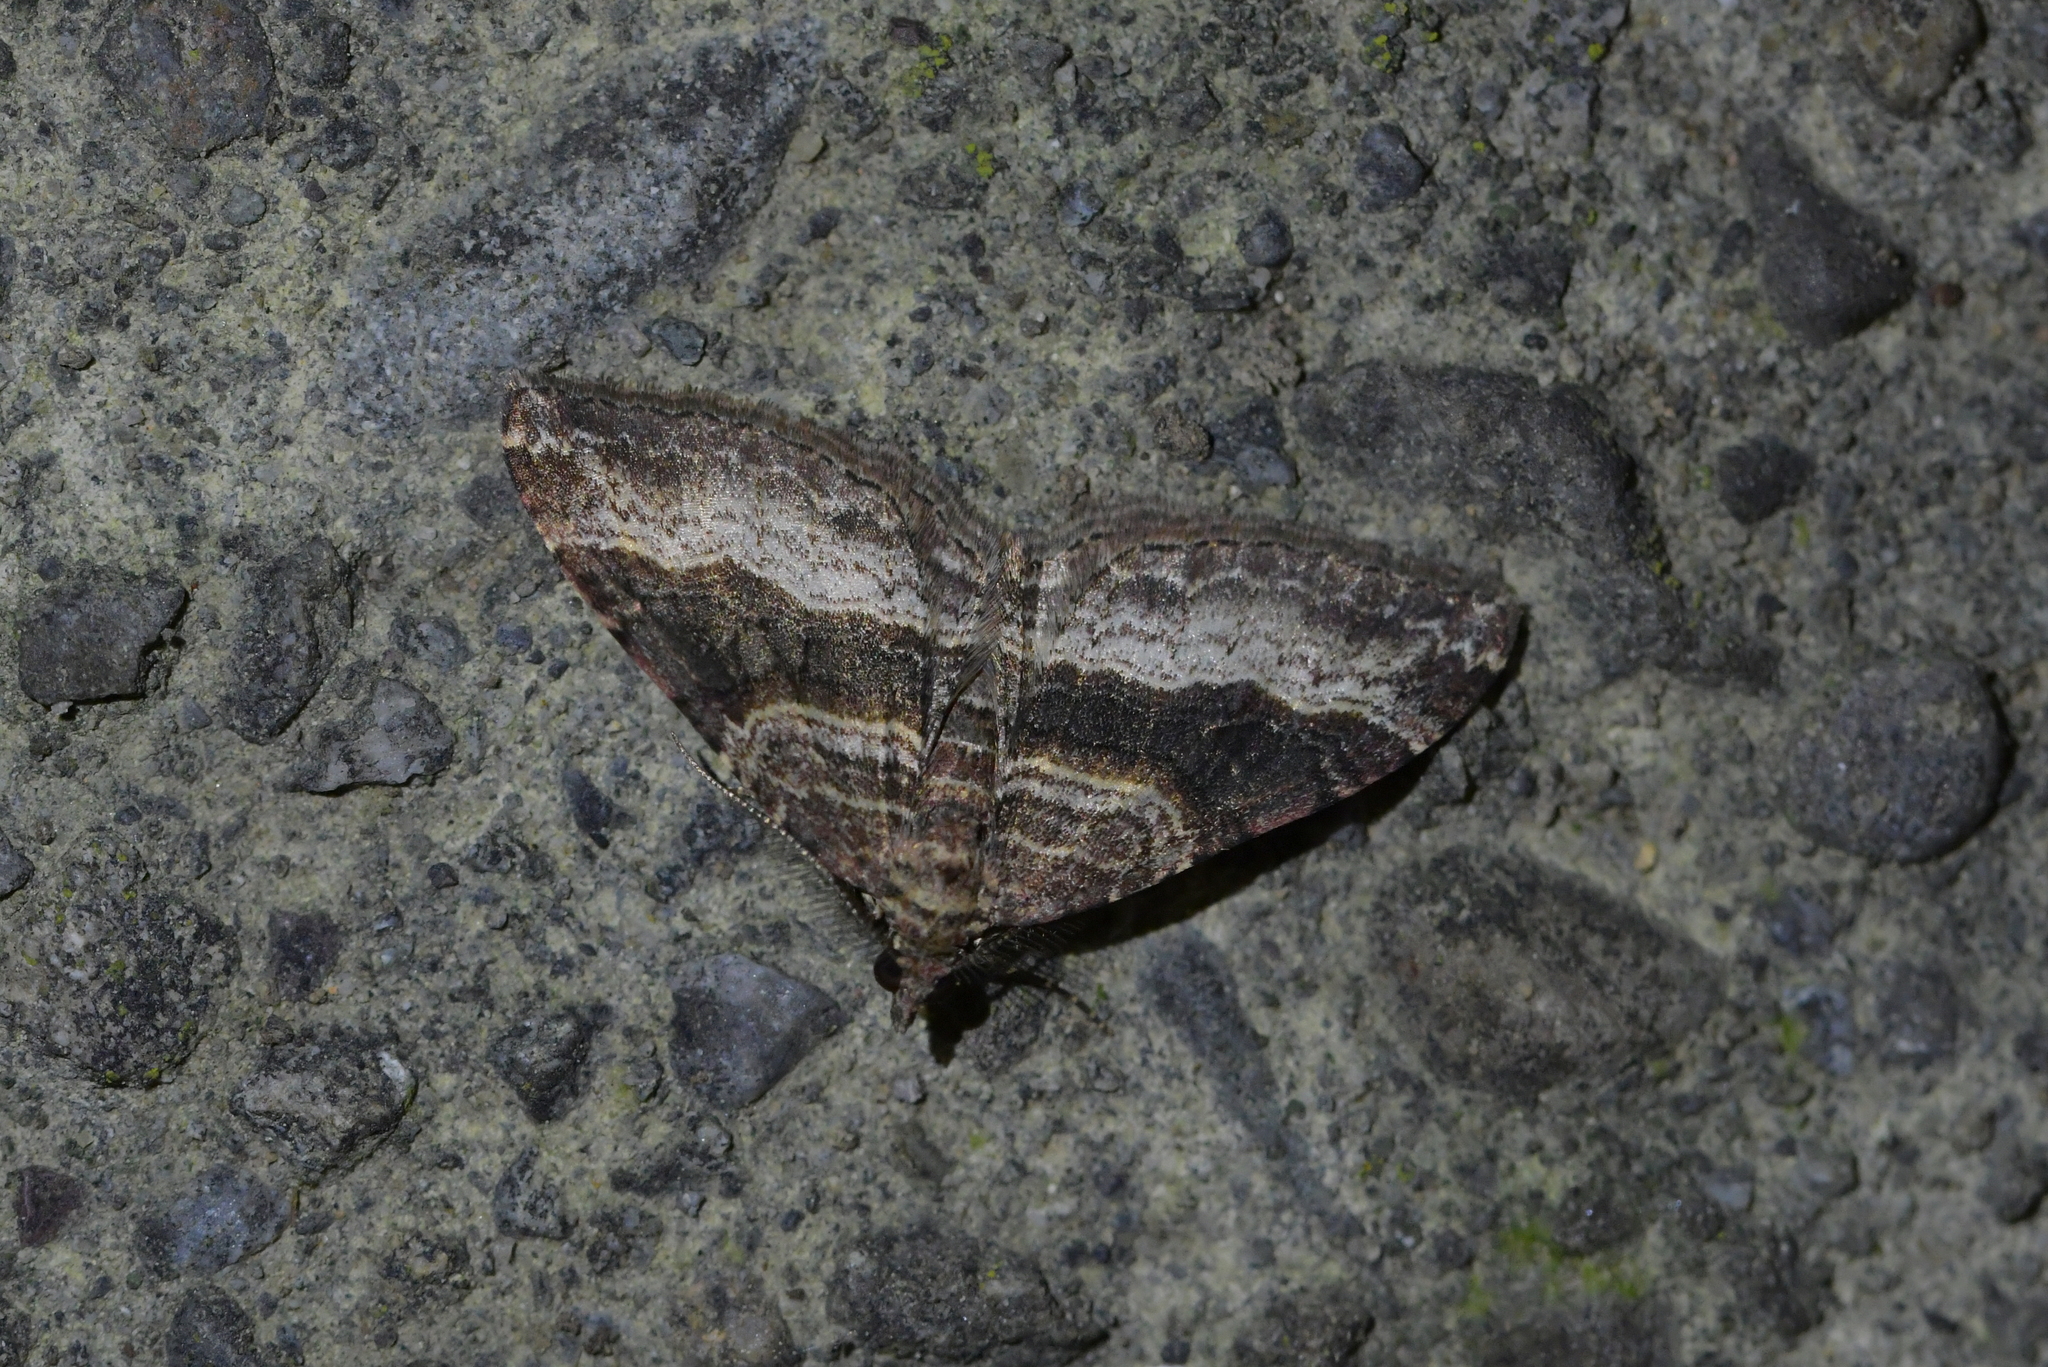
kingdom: Animalia
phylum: Arthropoda
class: Insecta
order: Lepidoptera
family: Geometridae
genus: Epyaxa
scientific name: Epyaxa lucidata
